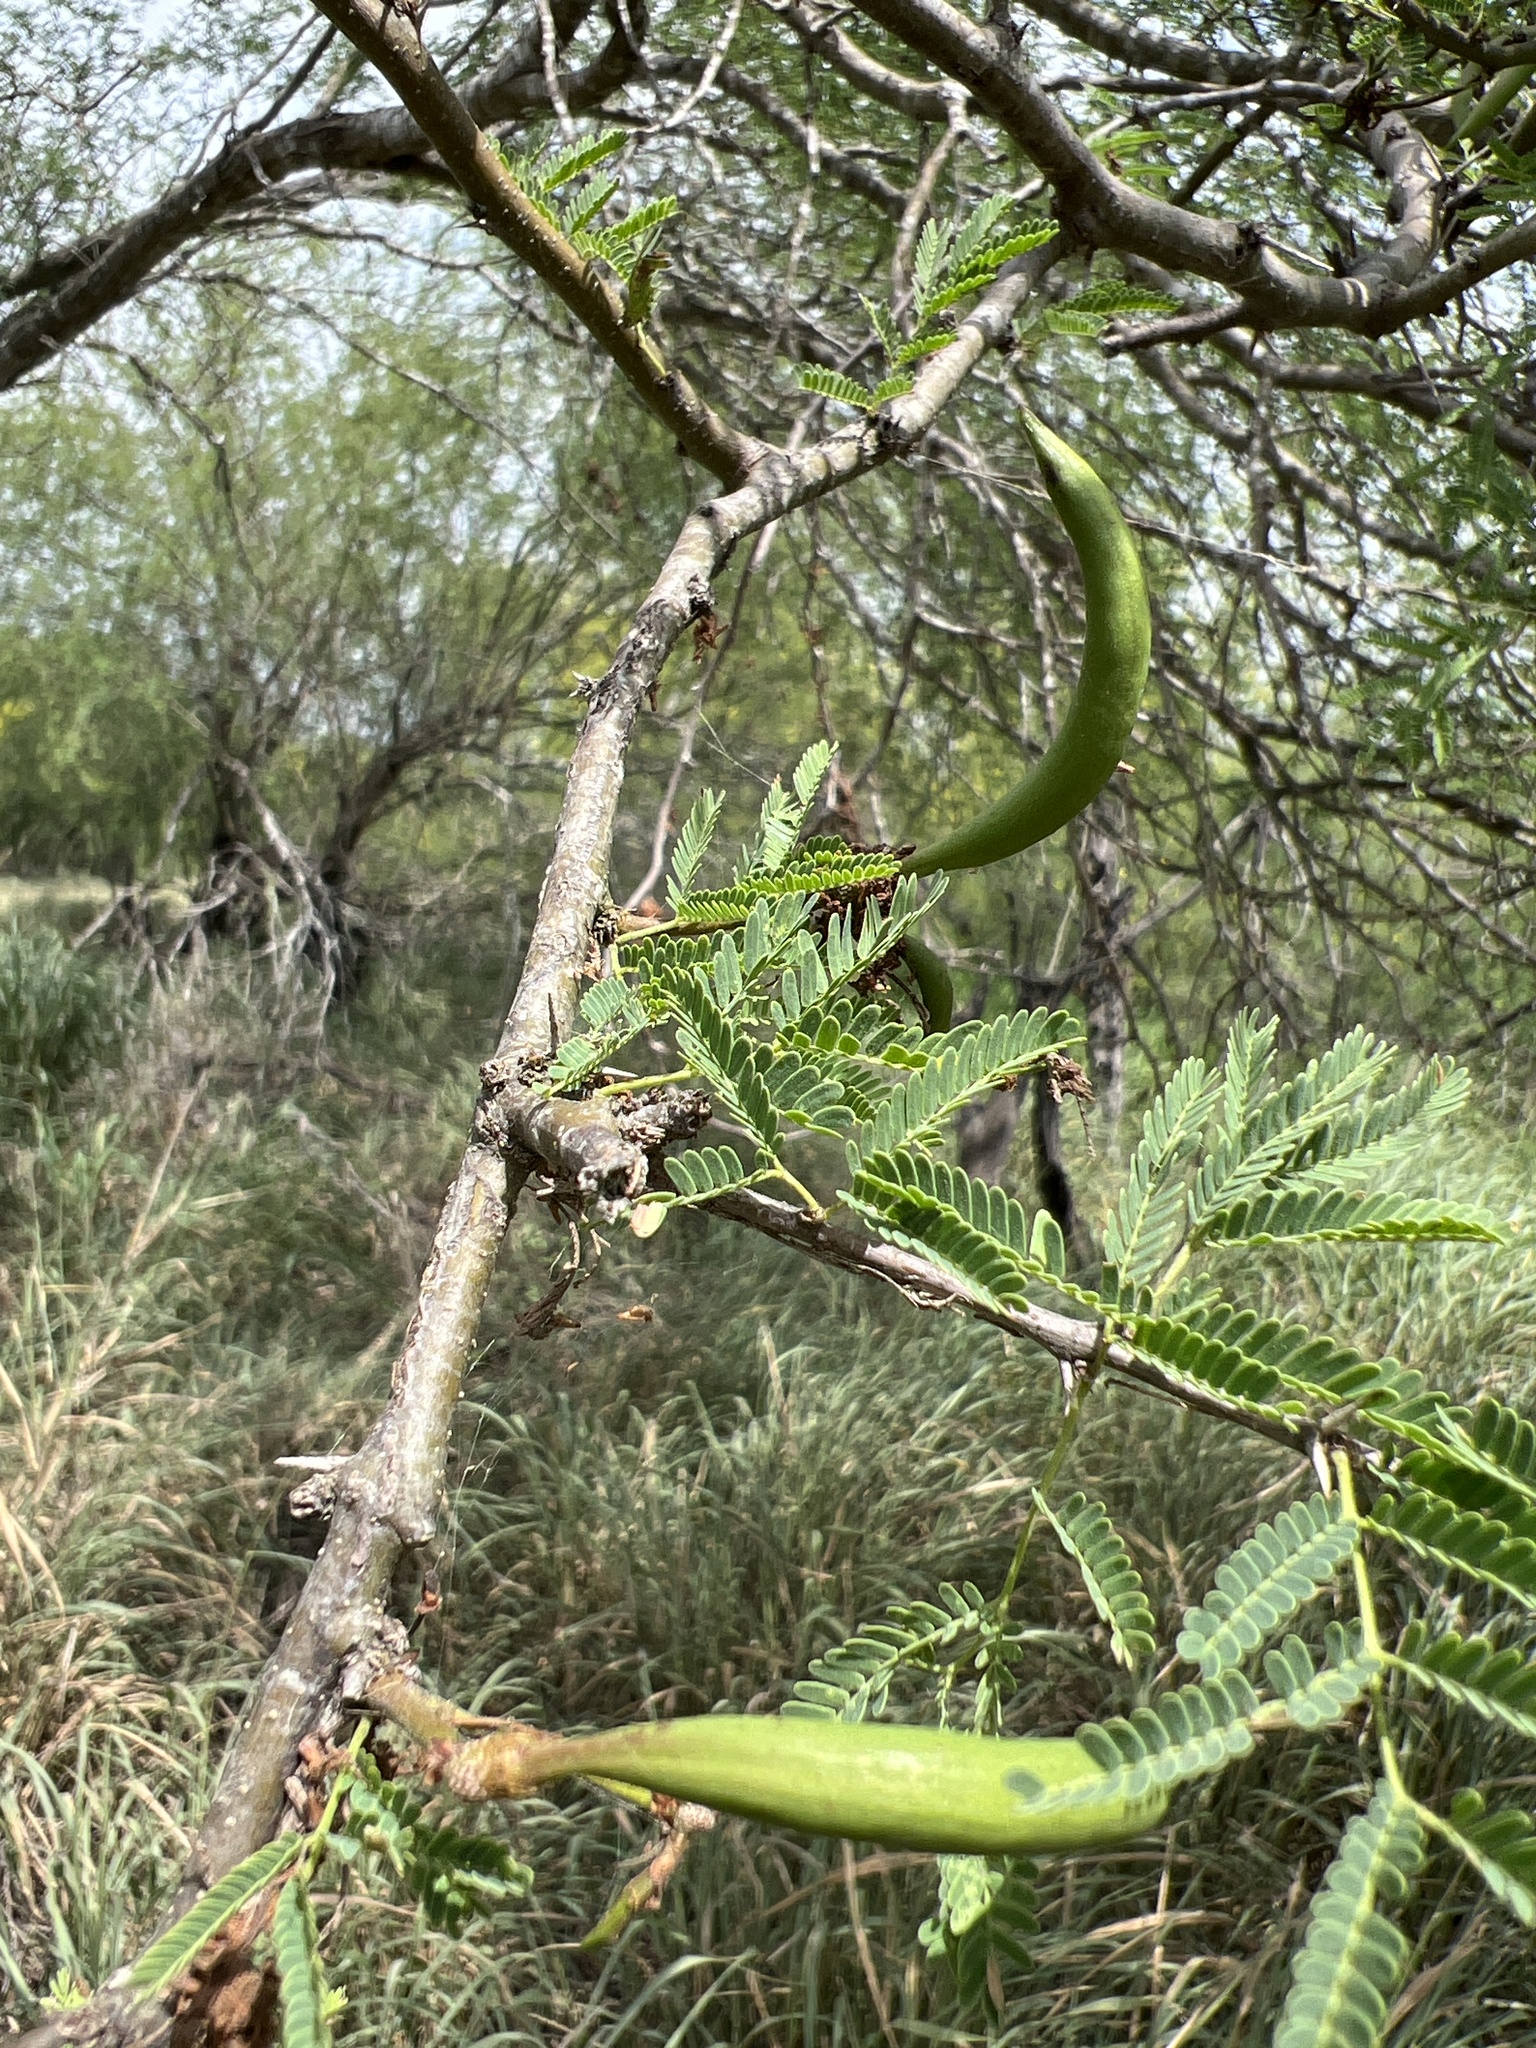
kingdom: Plantae
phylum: Tracheophyta
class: Magnoliopsida
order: Fabales
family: Fabaceae
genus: Vachellia
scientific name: Vachellia farnesiana
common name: Sweet acacia
